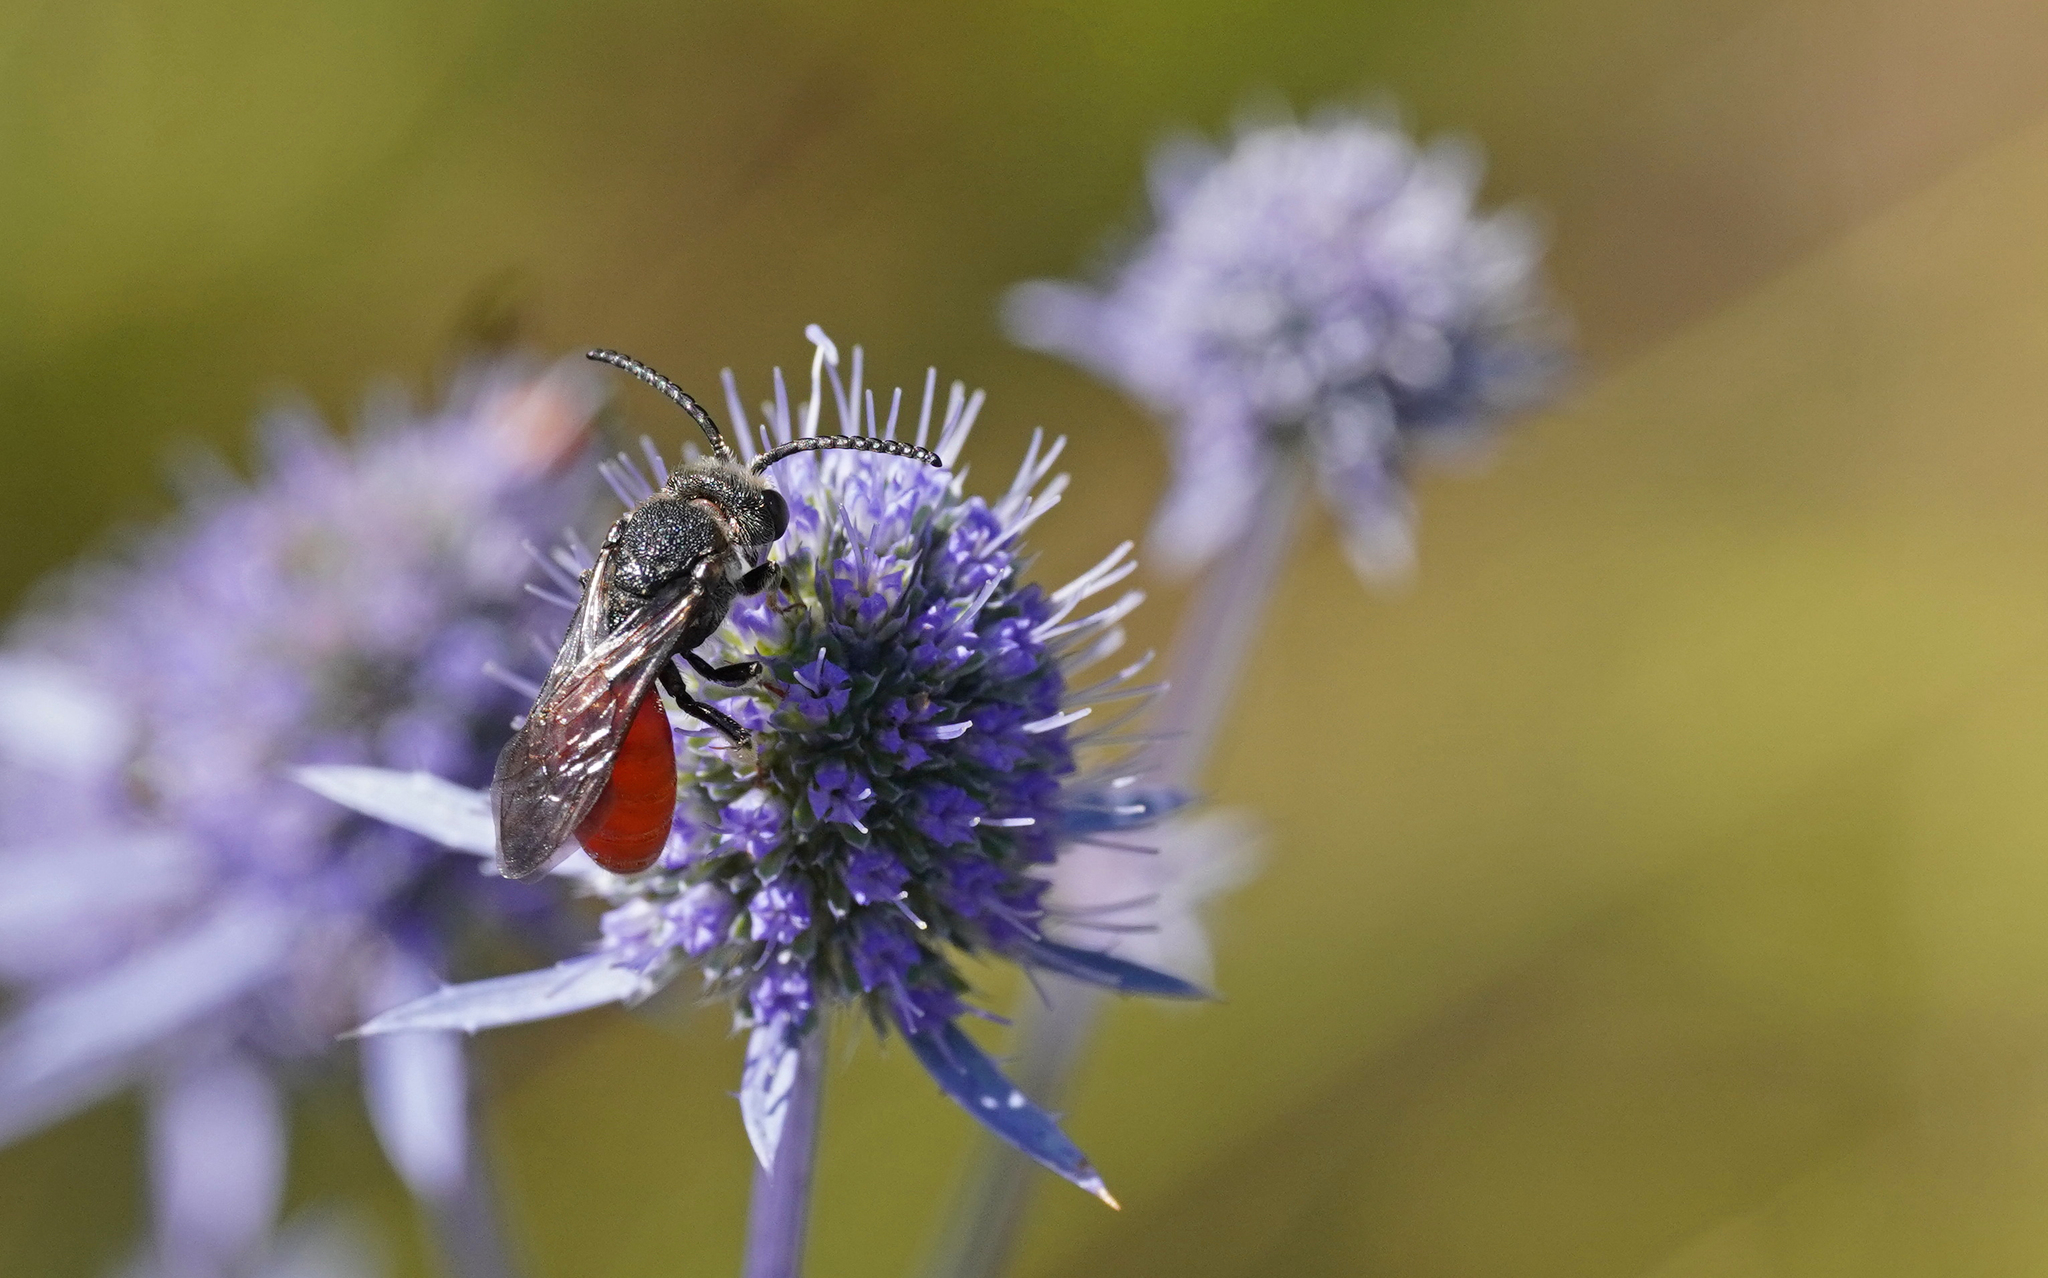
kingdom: Animalia
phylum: Arthropoda
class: Insecta
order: Hymenoptera
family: Halictidae
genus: Sphecodes
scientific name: Sphecodes albilabris
